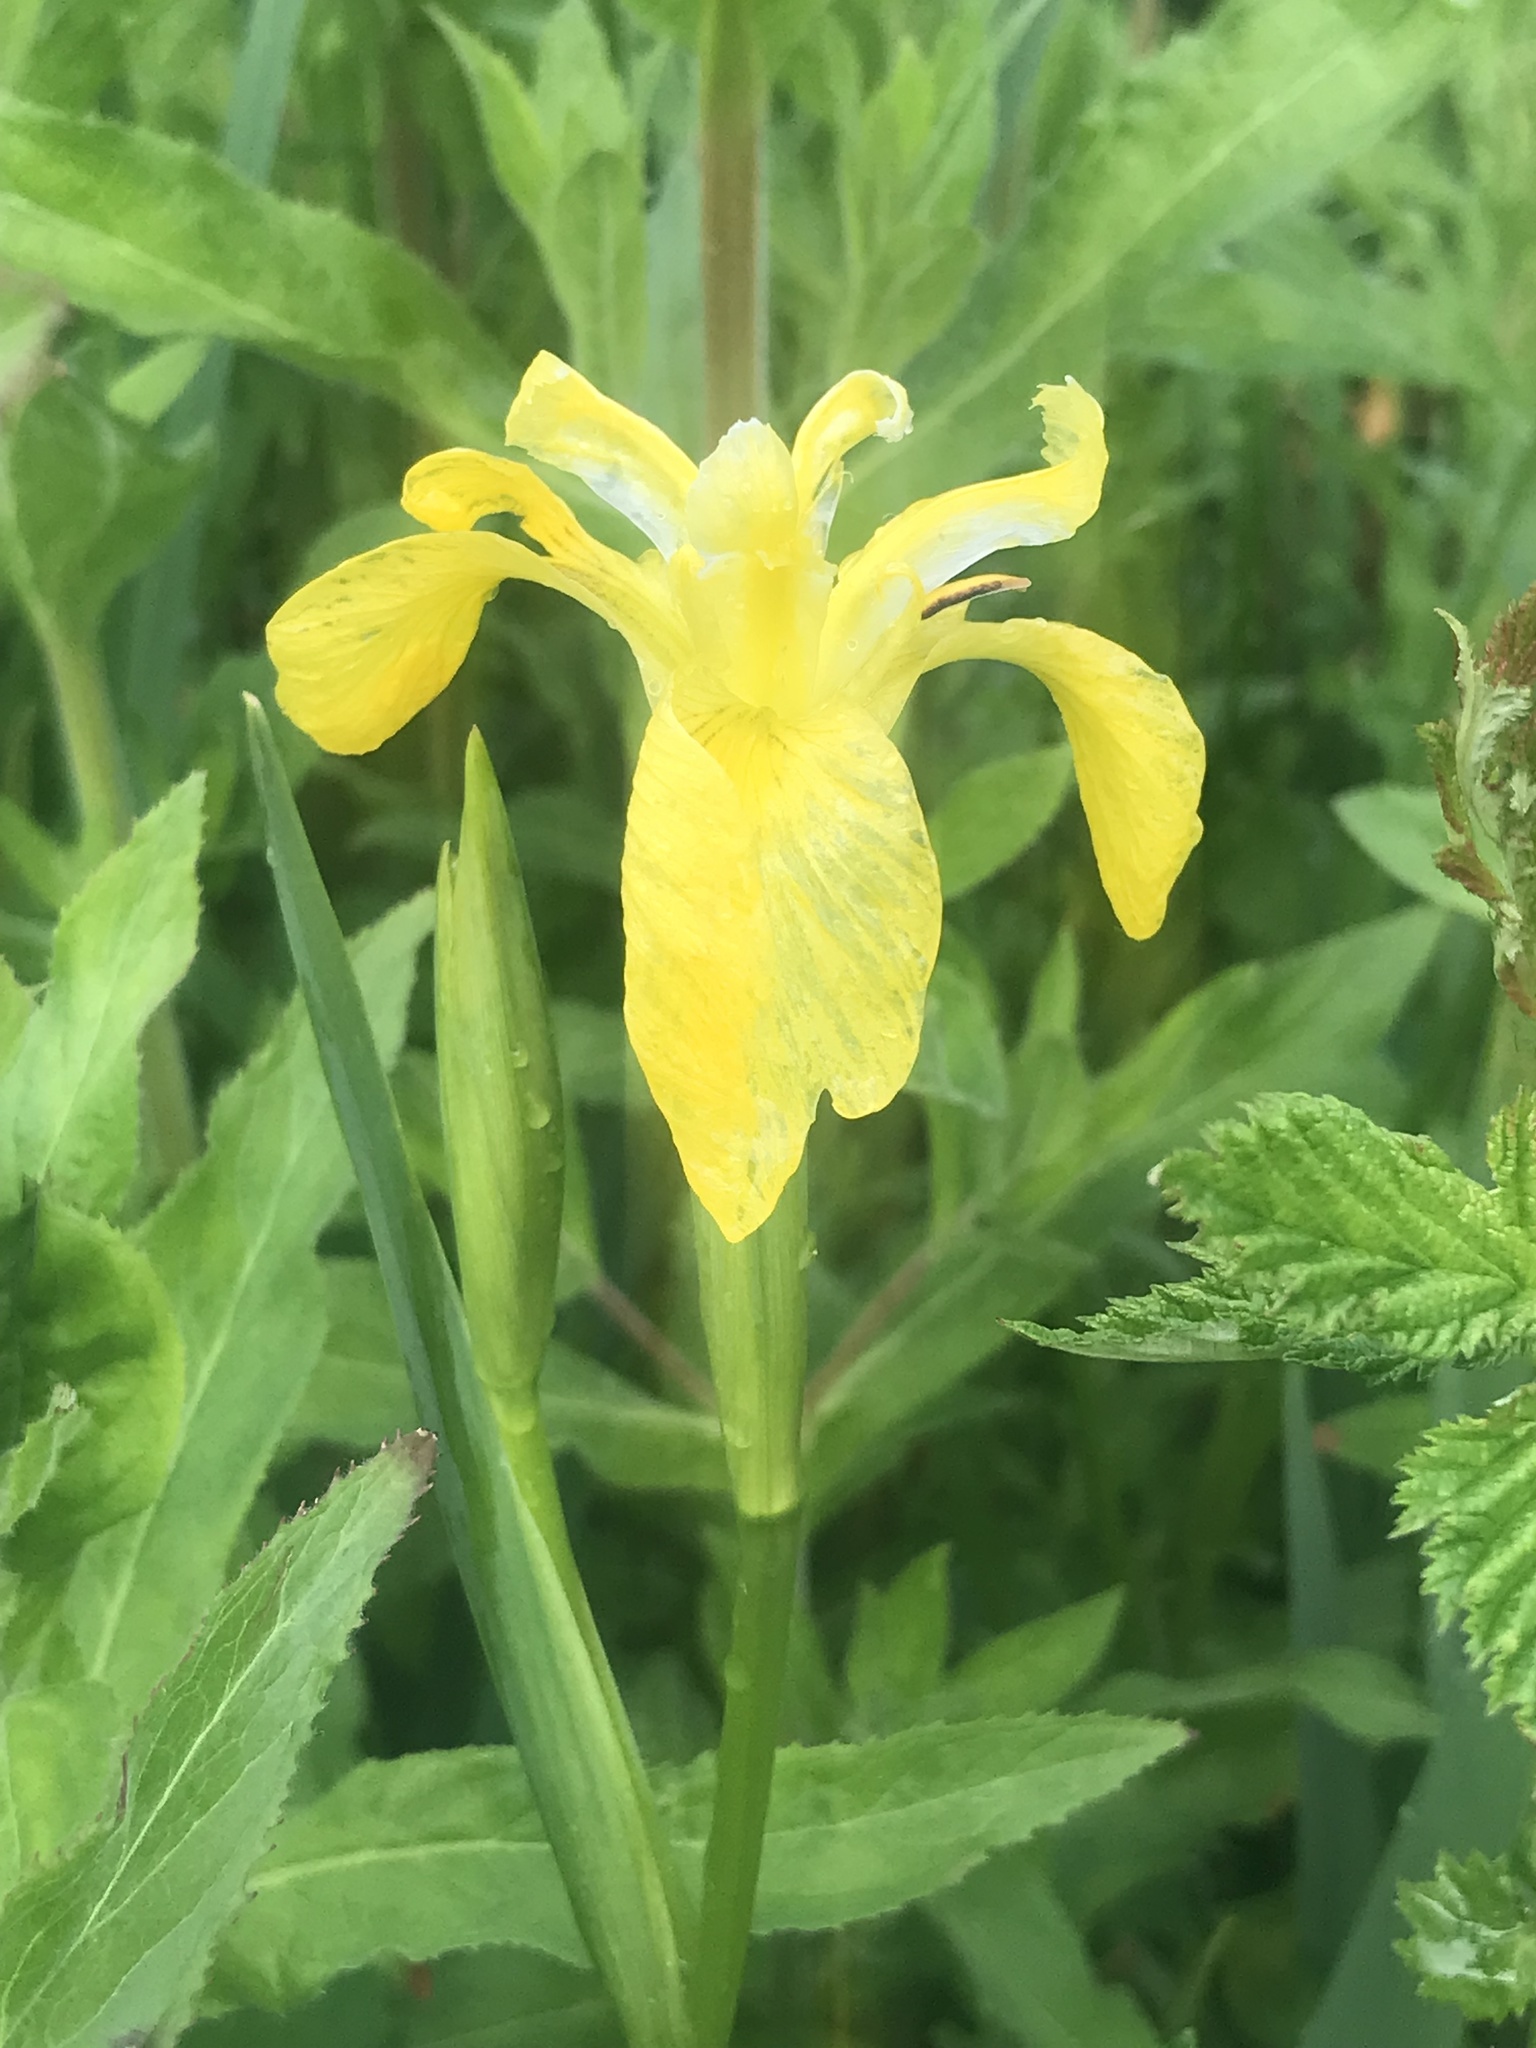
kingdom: Plantae
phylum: Tracheophyta
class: Liliopsida
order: Asparagales
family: Iridaceae
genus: Iris
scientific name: Iris pseudacorus
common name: Yellow flag
